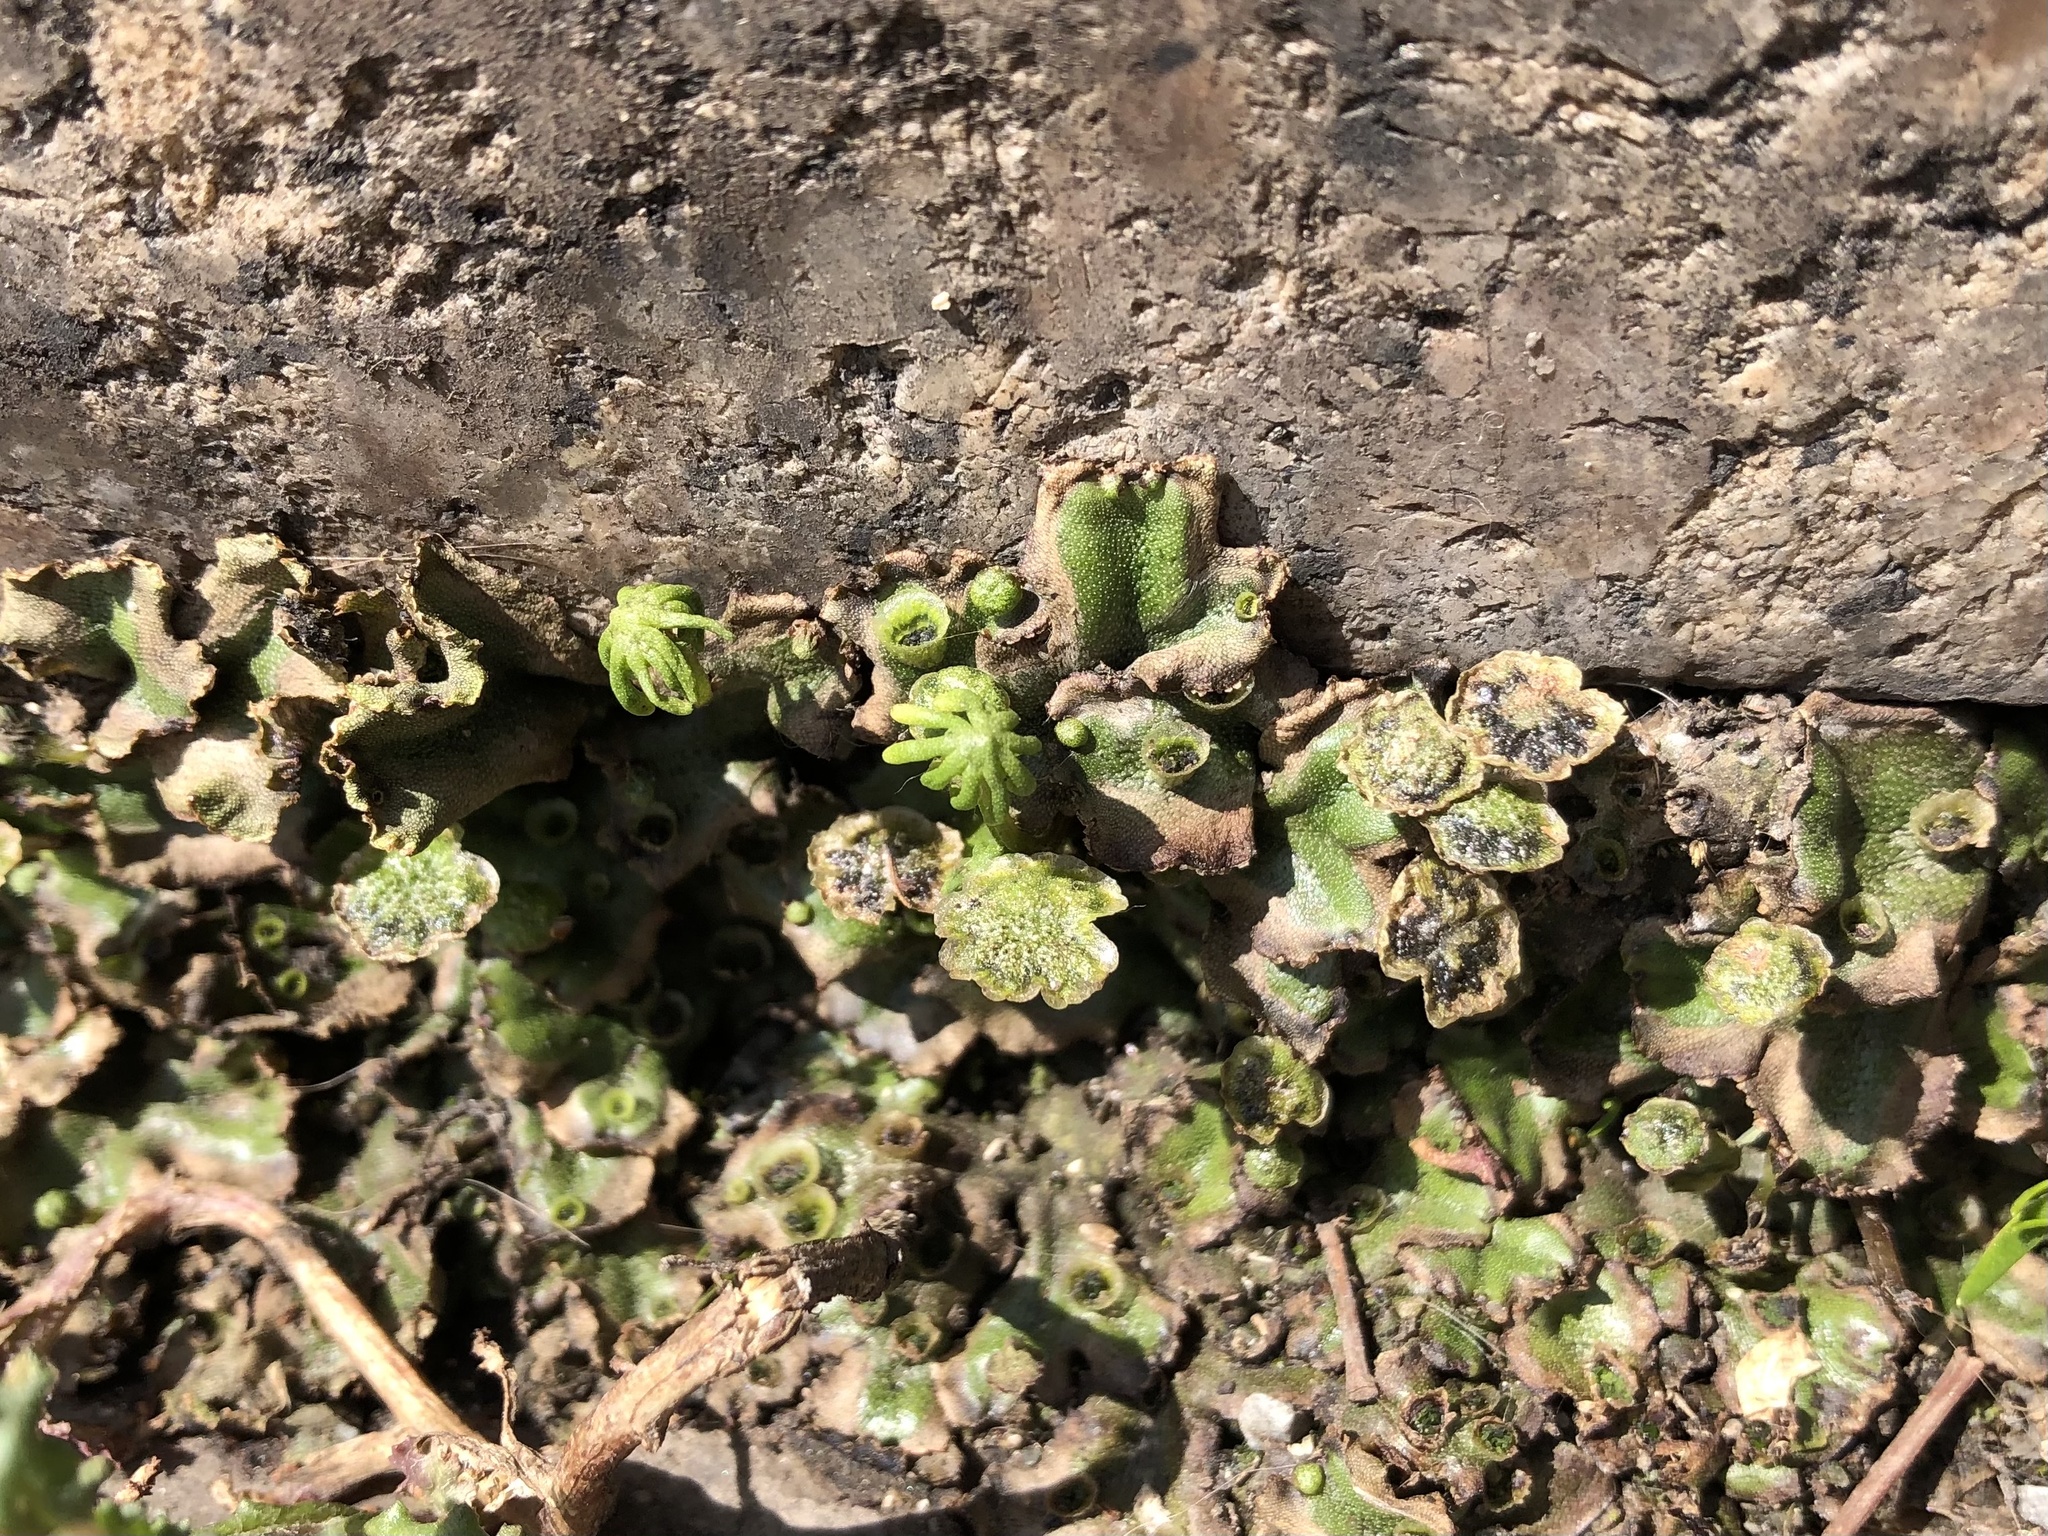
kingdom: Plantae
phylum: Marchantiophyta
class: Marchantiopsida
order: Marchantiales
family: Marchantiaceae
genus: Marchantia
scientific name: Marchantia polymorpha
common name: Common liverwort
